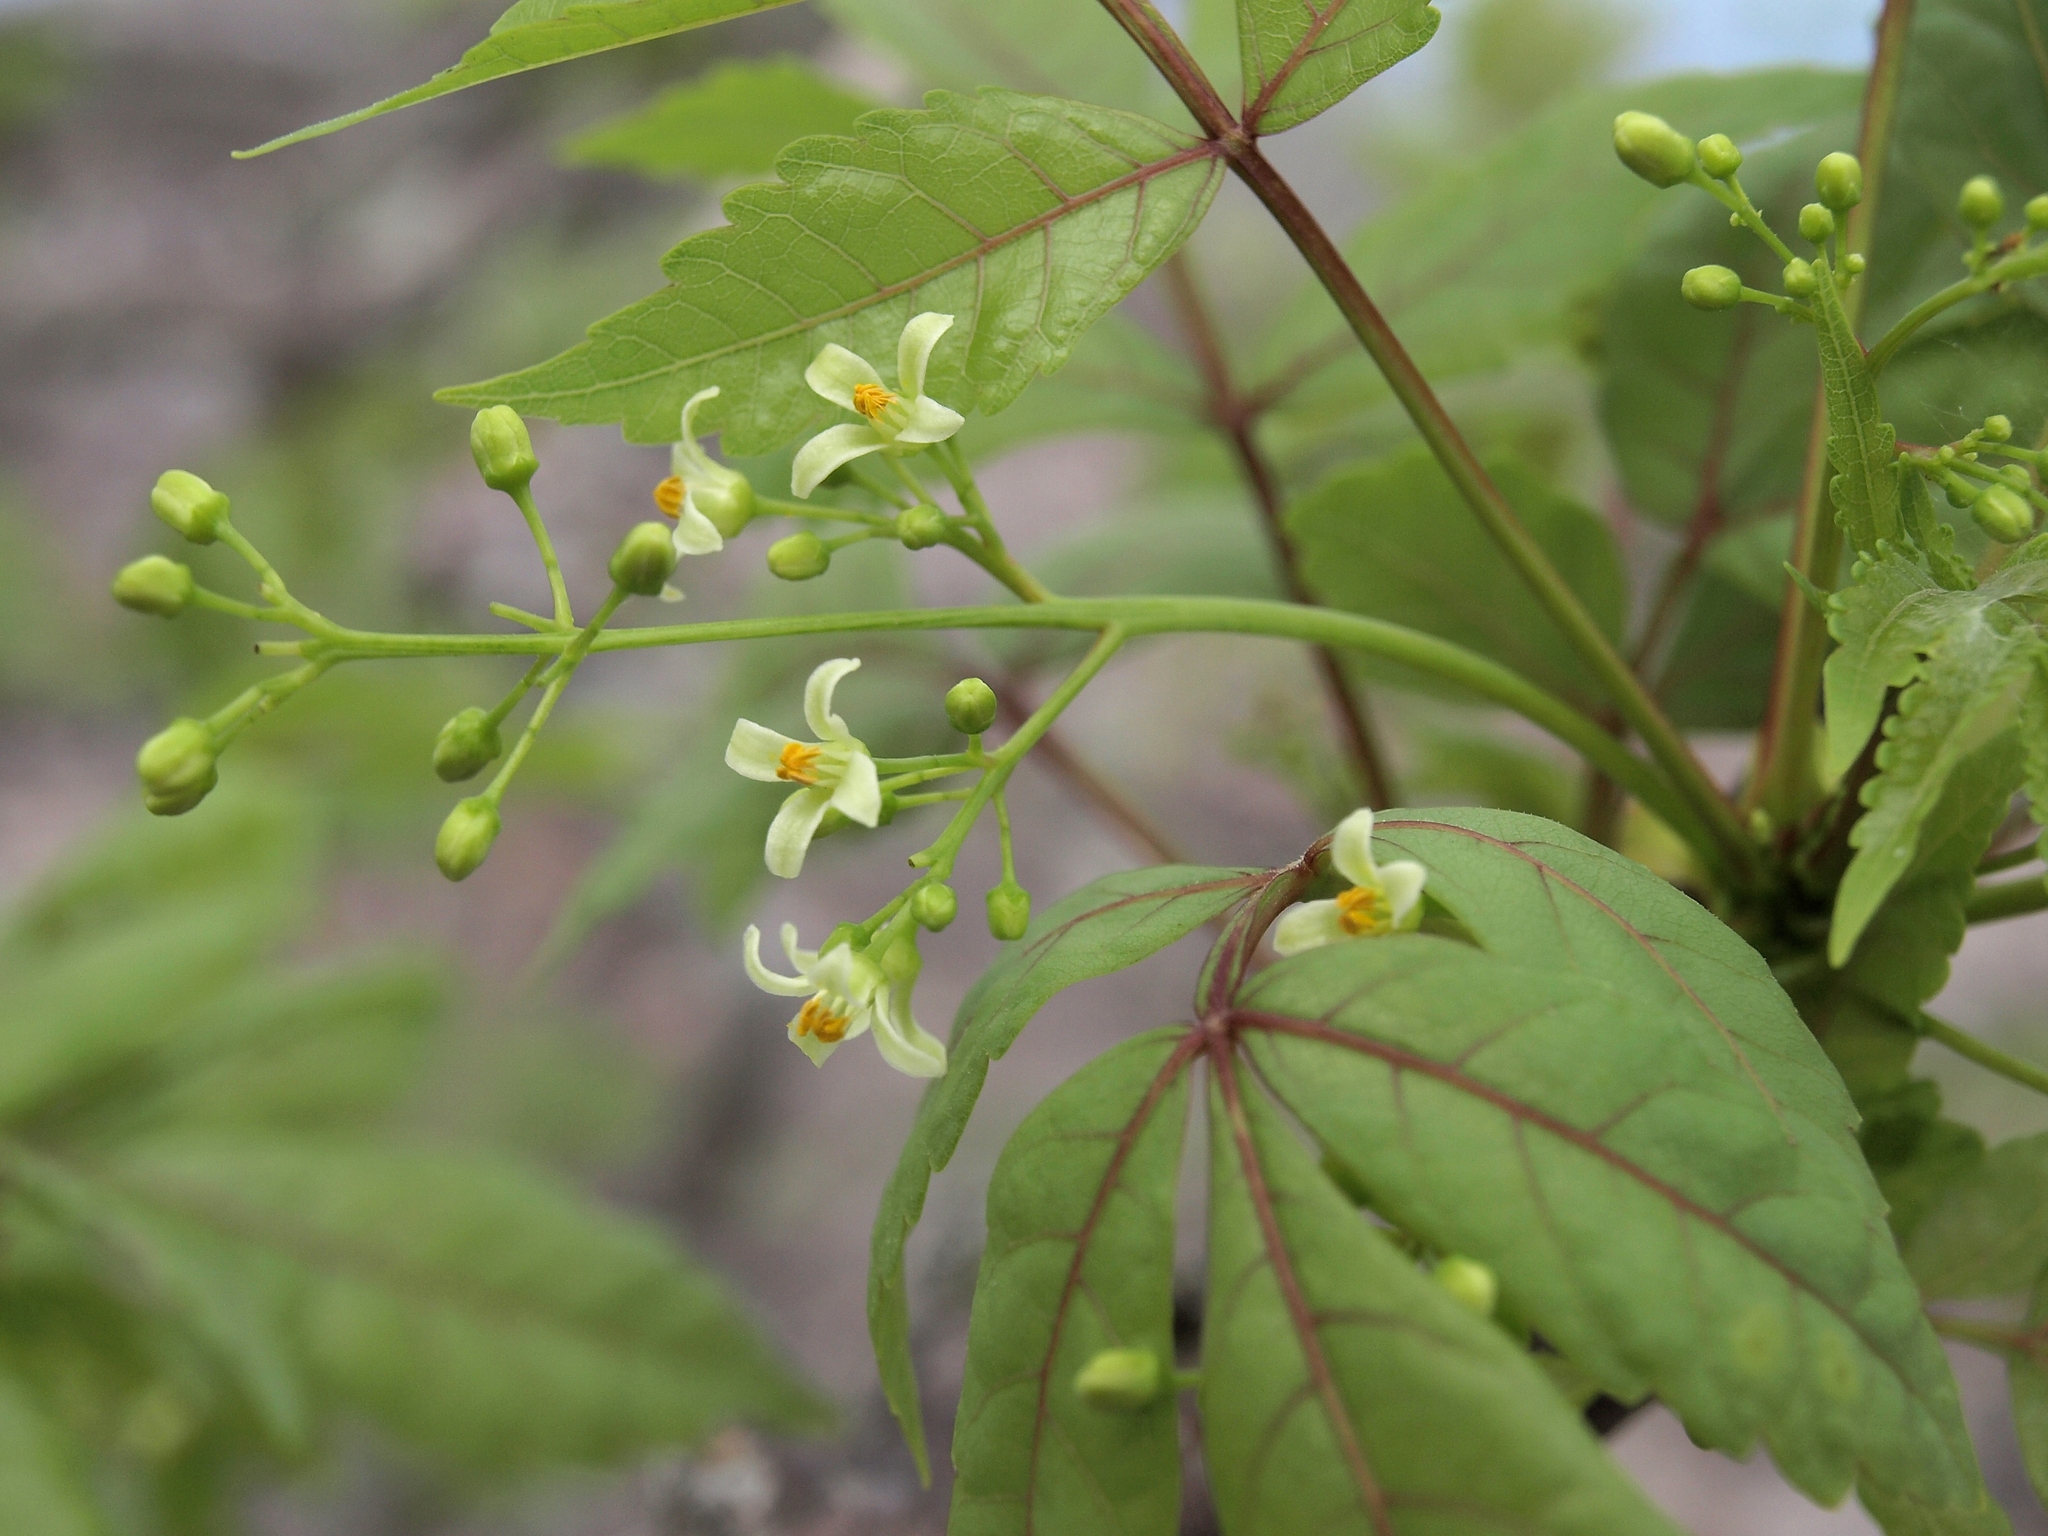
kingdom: Plantae
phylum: Tracheophyta
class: Magnoliopsida
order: Sapindales
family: Burseraceae
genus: Bursera
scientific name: Bursera graveolens
